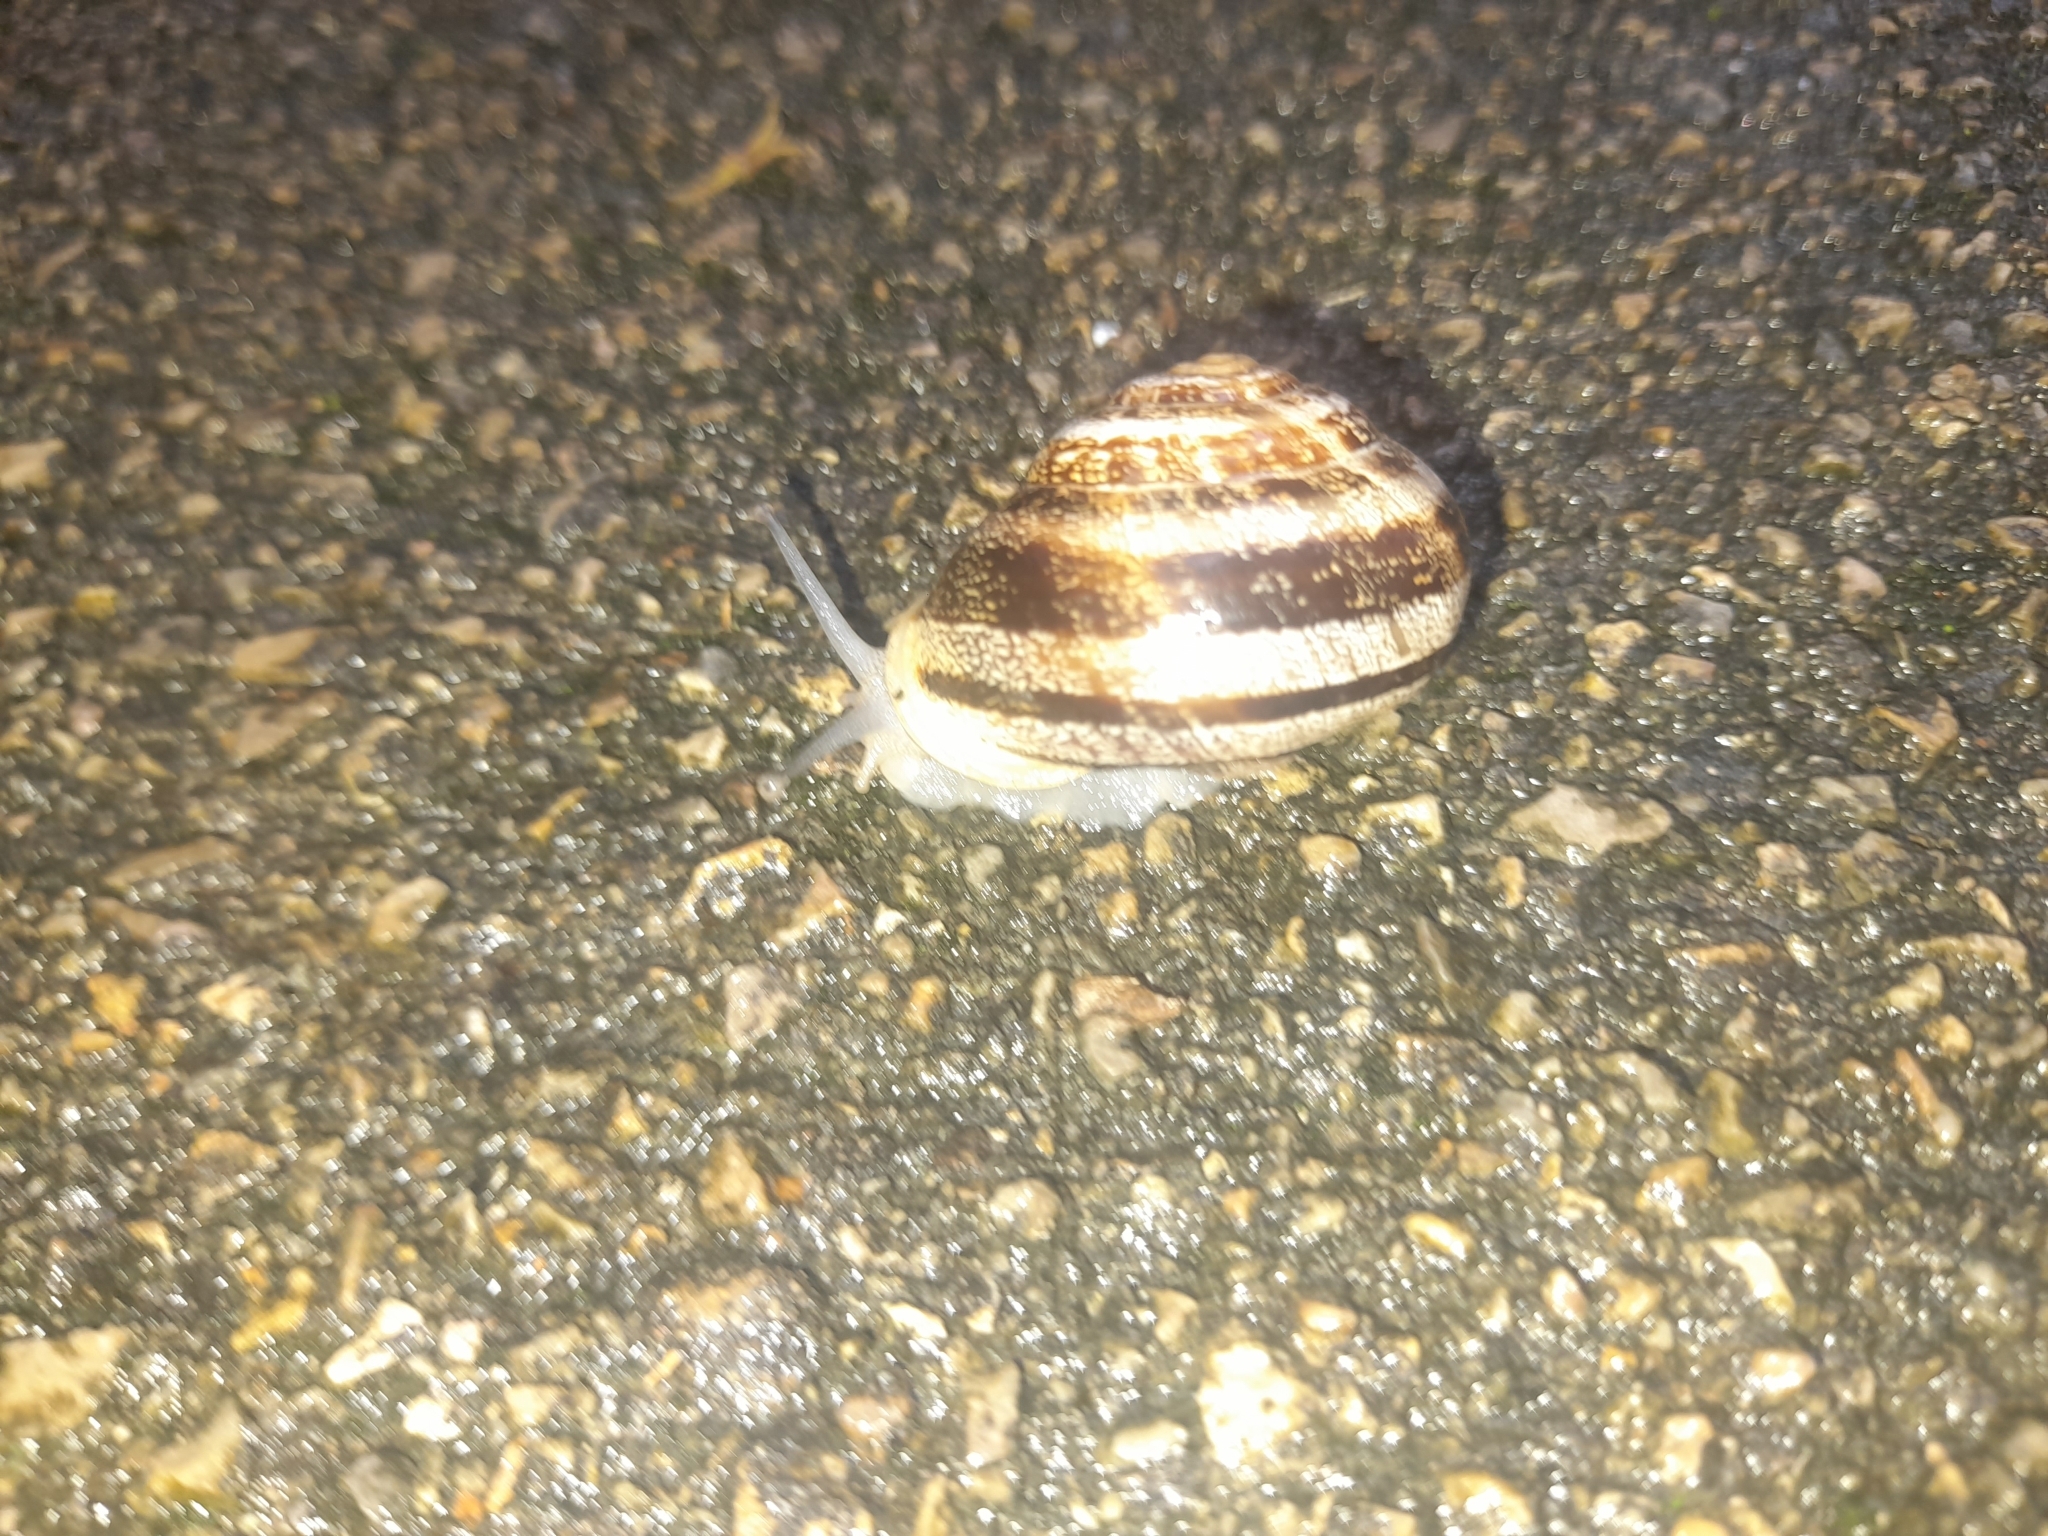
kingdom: Animalia
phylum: Mollusca
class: Gastropoda
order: Stylommatophora
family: Helicidae
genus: Eobania
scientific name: Eobania vermiculata
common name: Chocolateband snail
